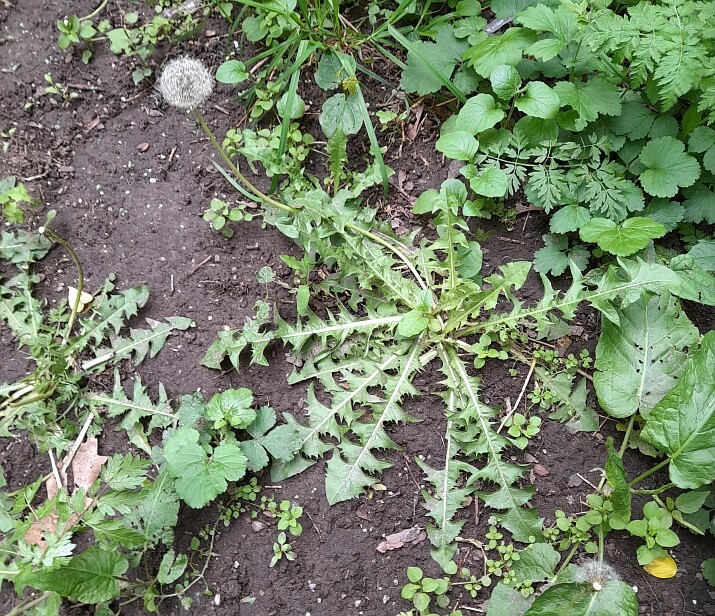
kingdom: Plantae
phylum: Tracheophyta
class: Magnoliopsida
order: Asterales
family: Asteraceae
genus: Taraxacum
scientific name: Taraxacum officinale
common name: Common dandelion
